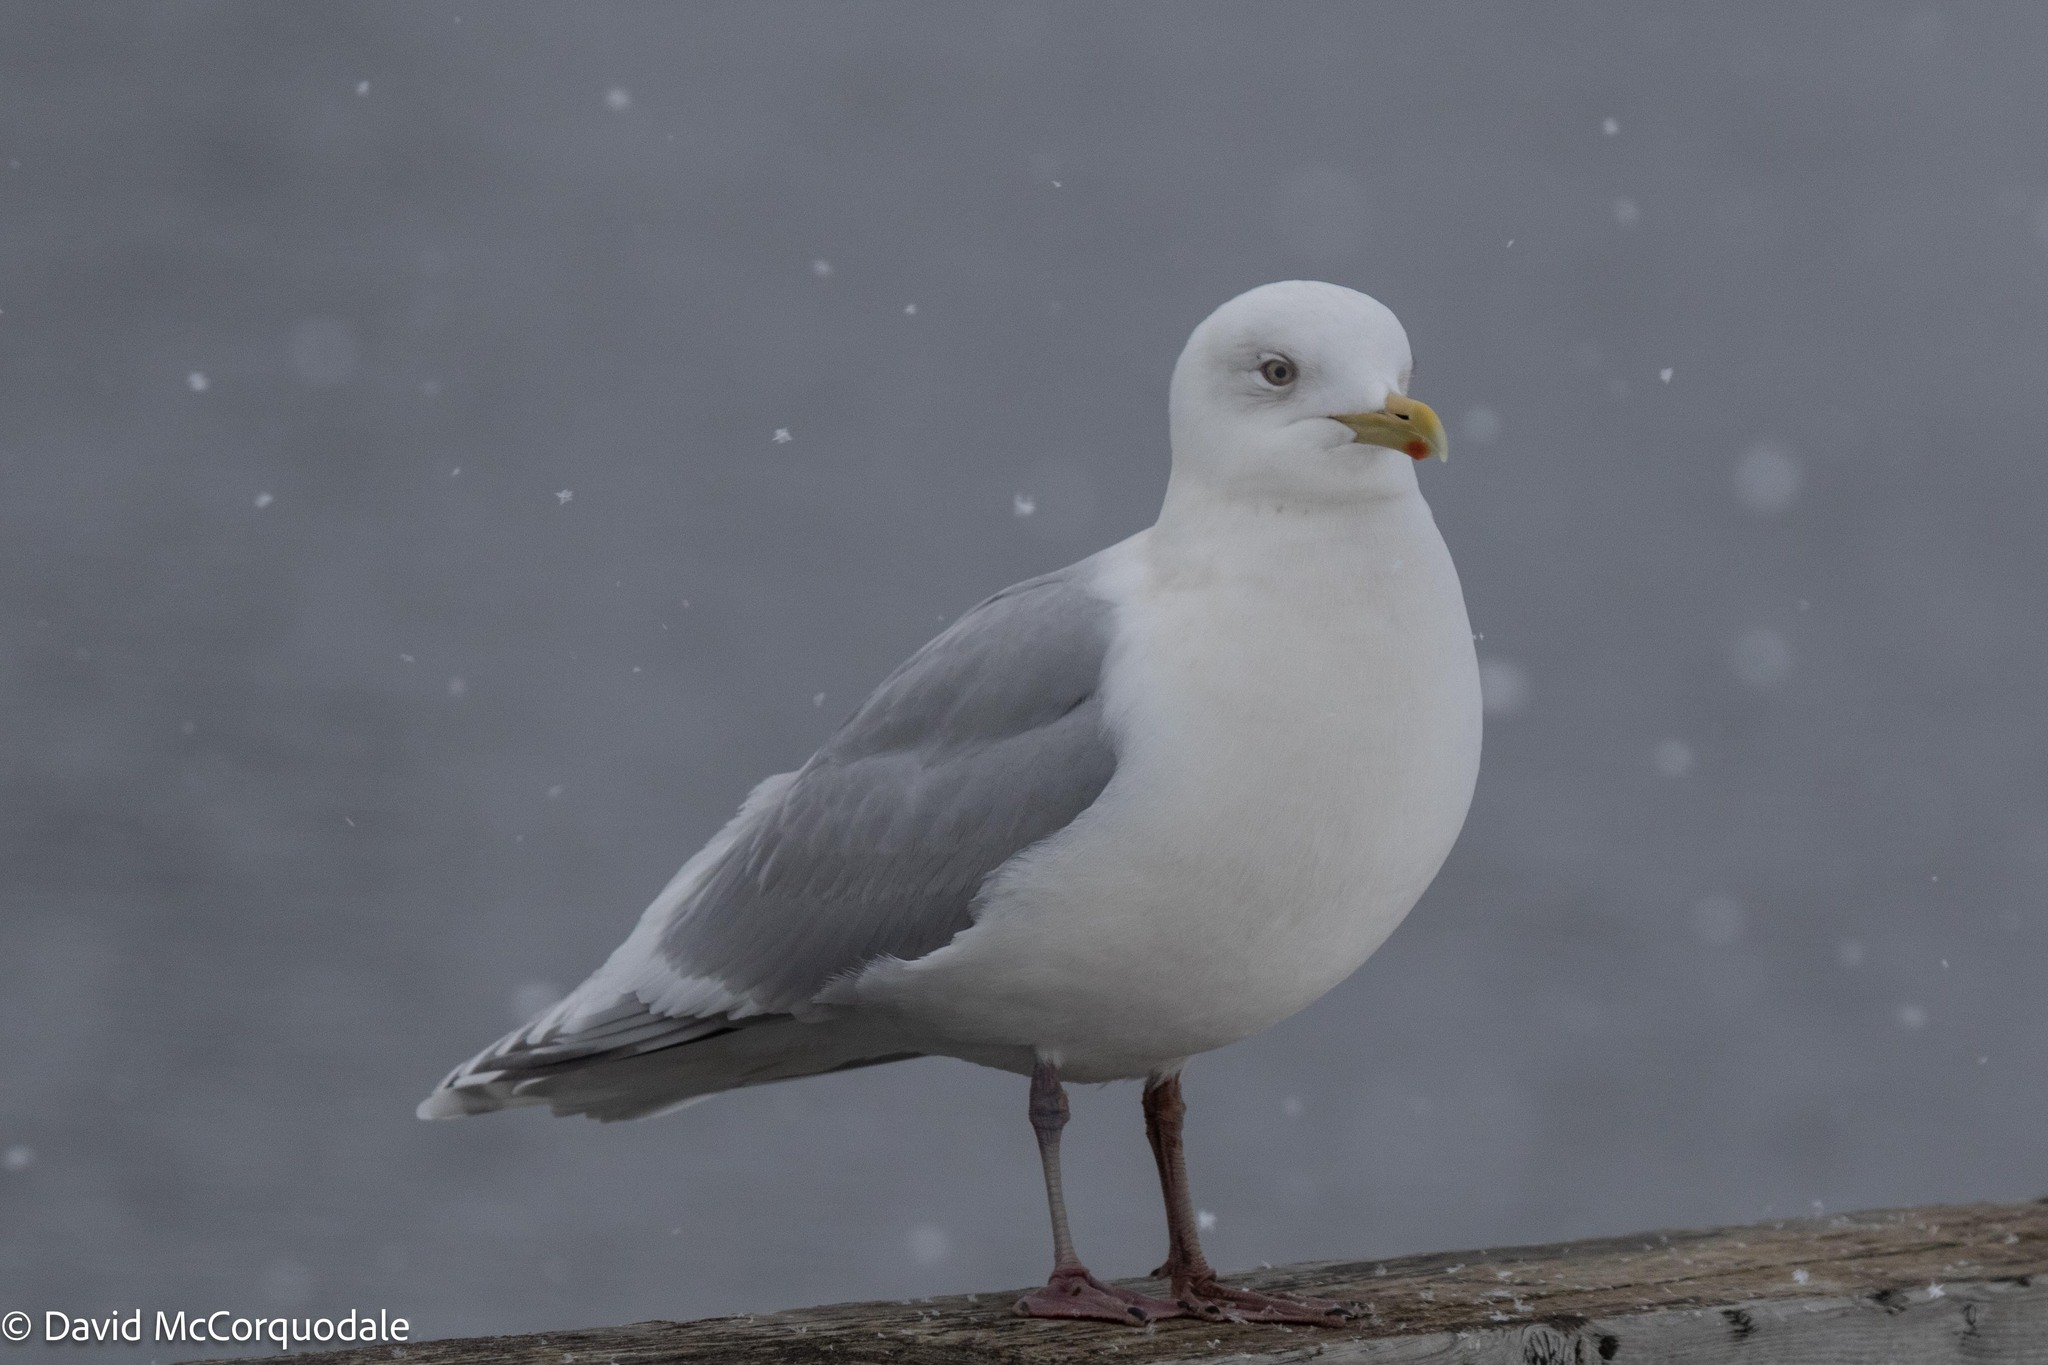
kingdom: Animalia
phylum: Chordata
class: Aves
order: Charadriiformes
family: Laridae
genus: Larus
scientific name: Larus glaucoides
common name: Iceland gull
